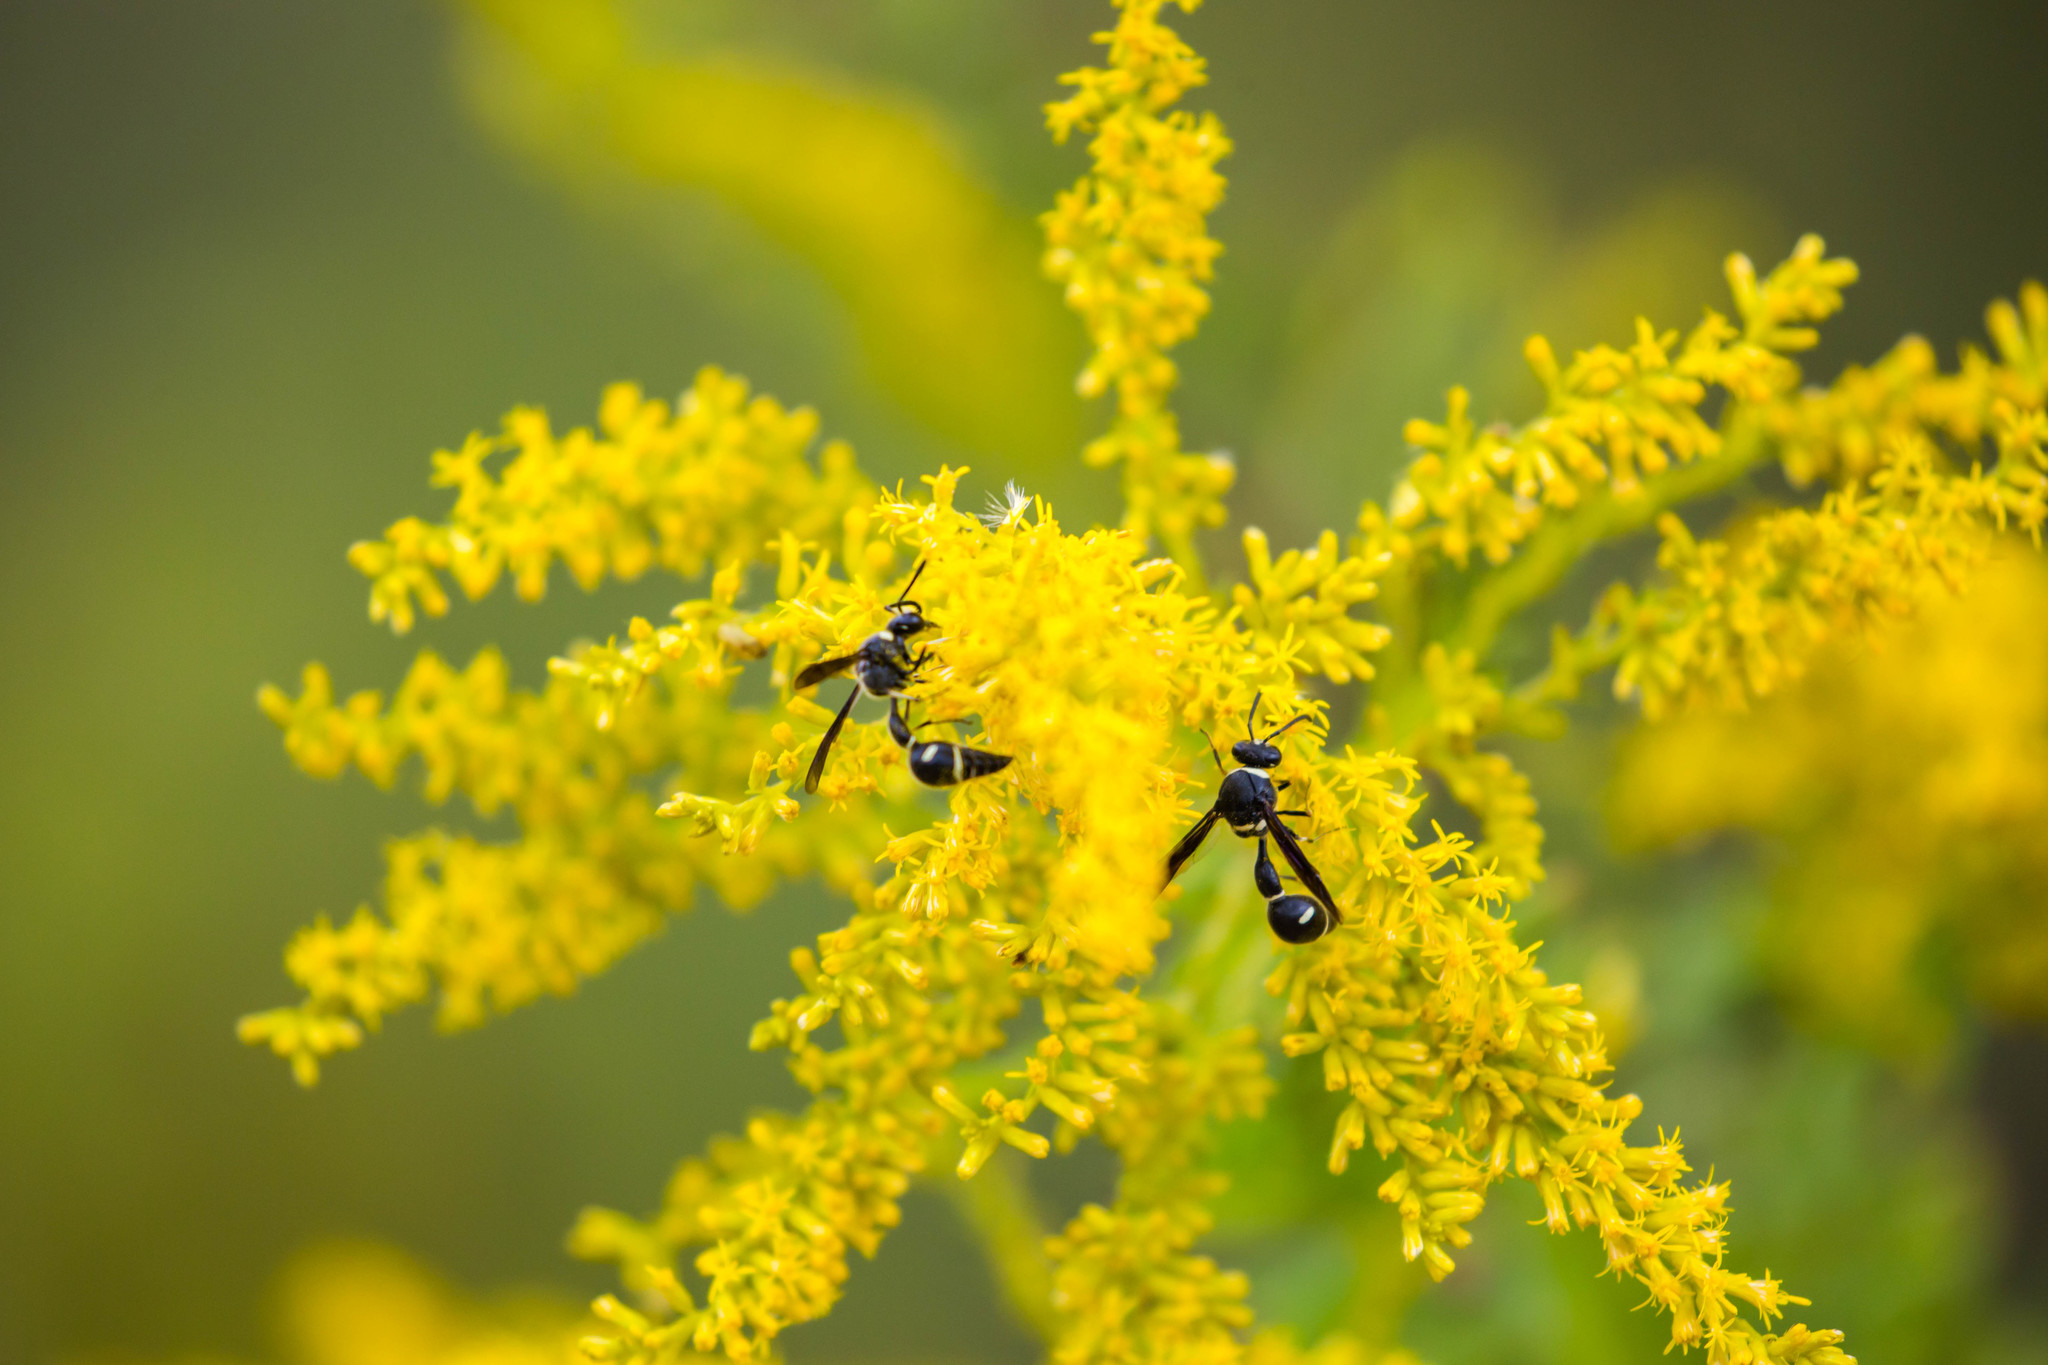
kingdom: Animalia
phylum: Arthropoda
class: Insecta
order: Hymenoptera
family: Vespidae
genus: Eumenes
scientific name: Eumenes fraternus
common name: Fraternal potter wasp
